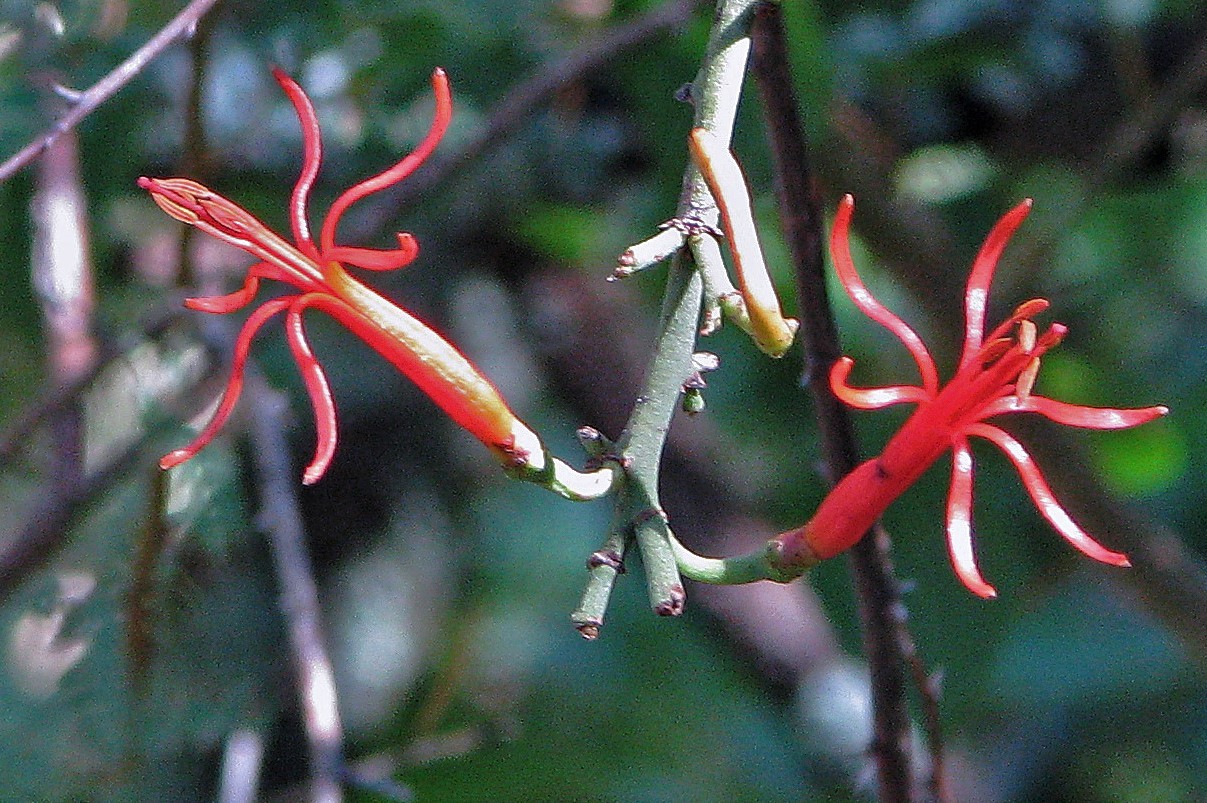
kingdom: Plantae
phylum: Tracheophyta
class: Magnoliopsida
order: Santalales
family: Loranthaceae
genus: Ligaria
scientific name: Ligaria cuneifolia
